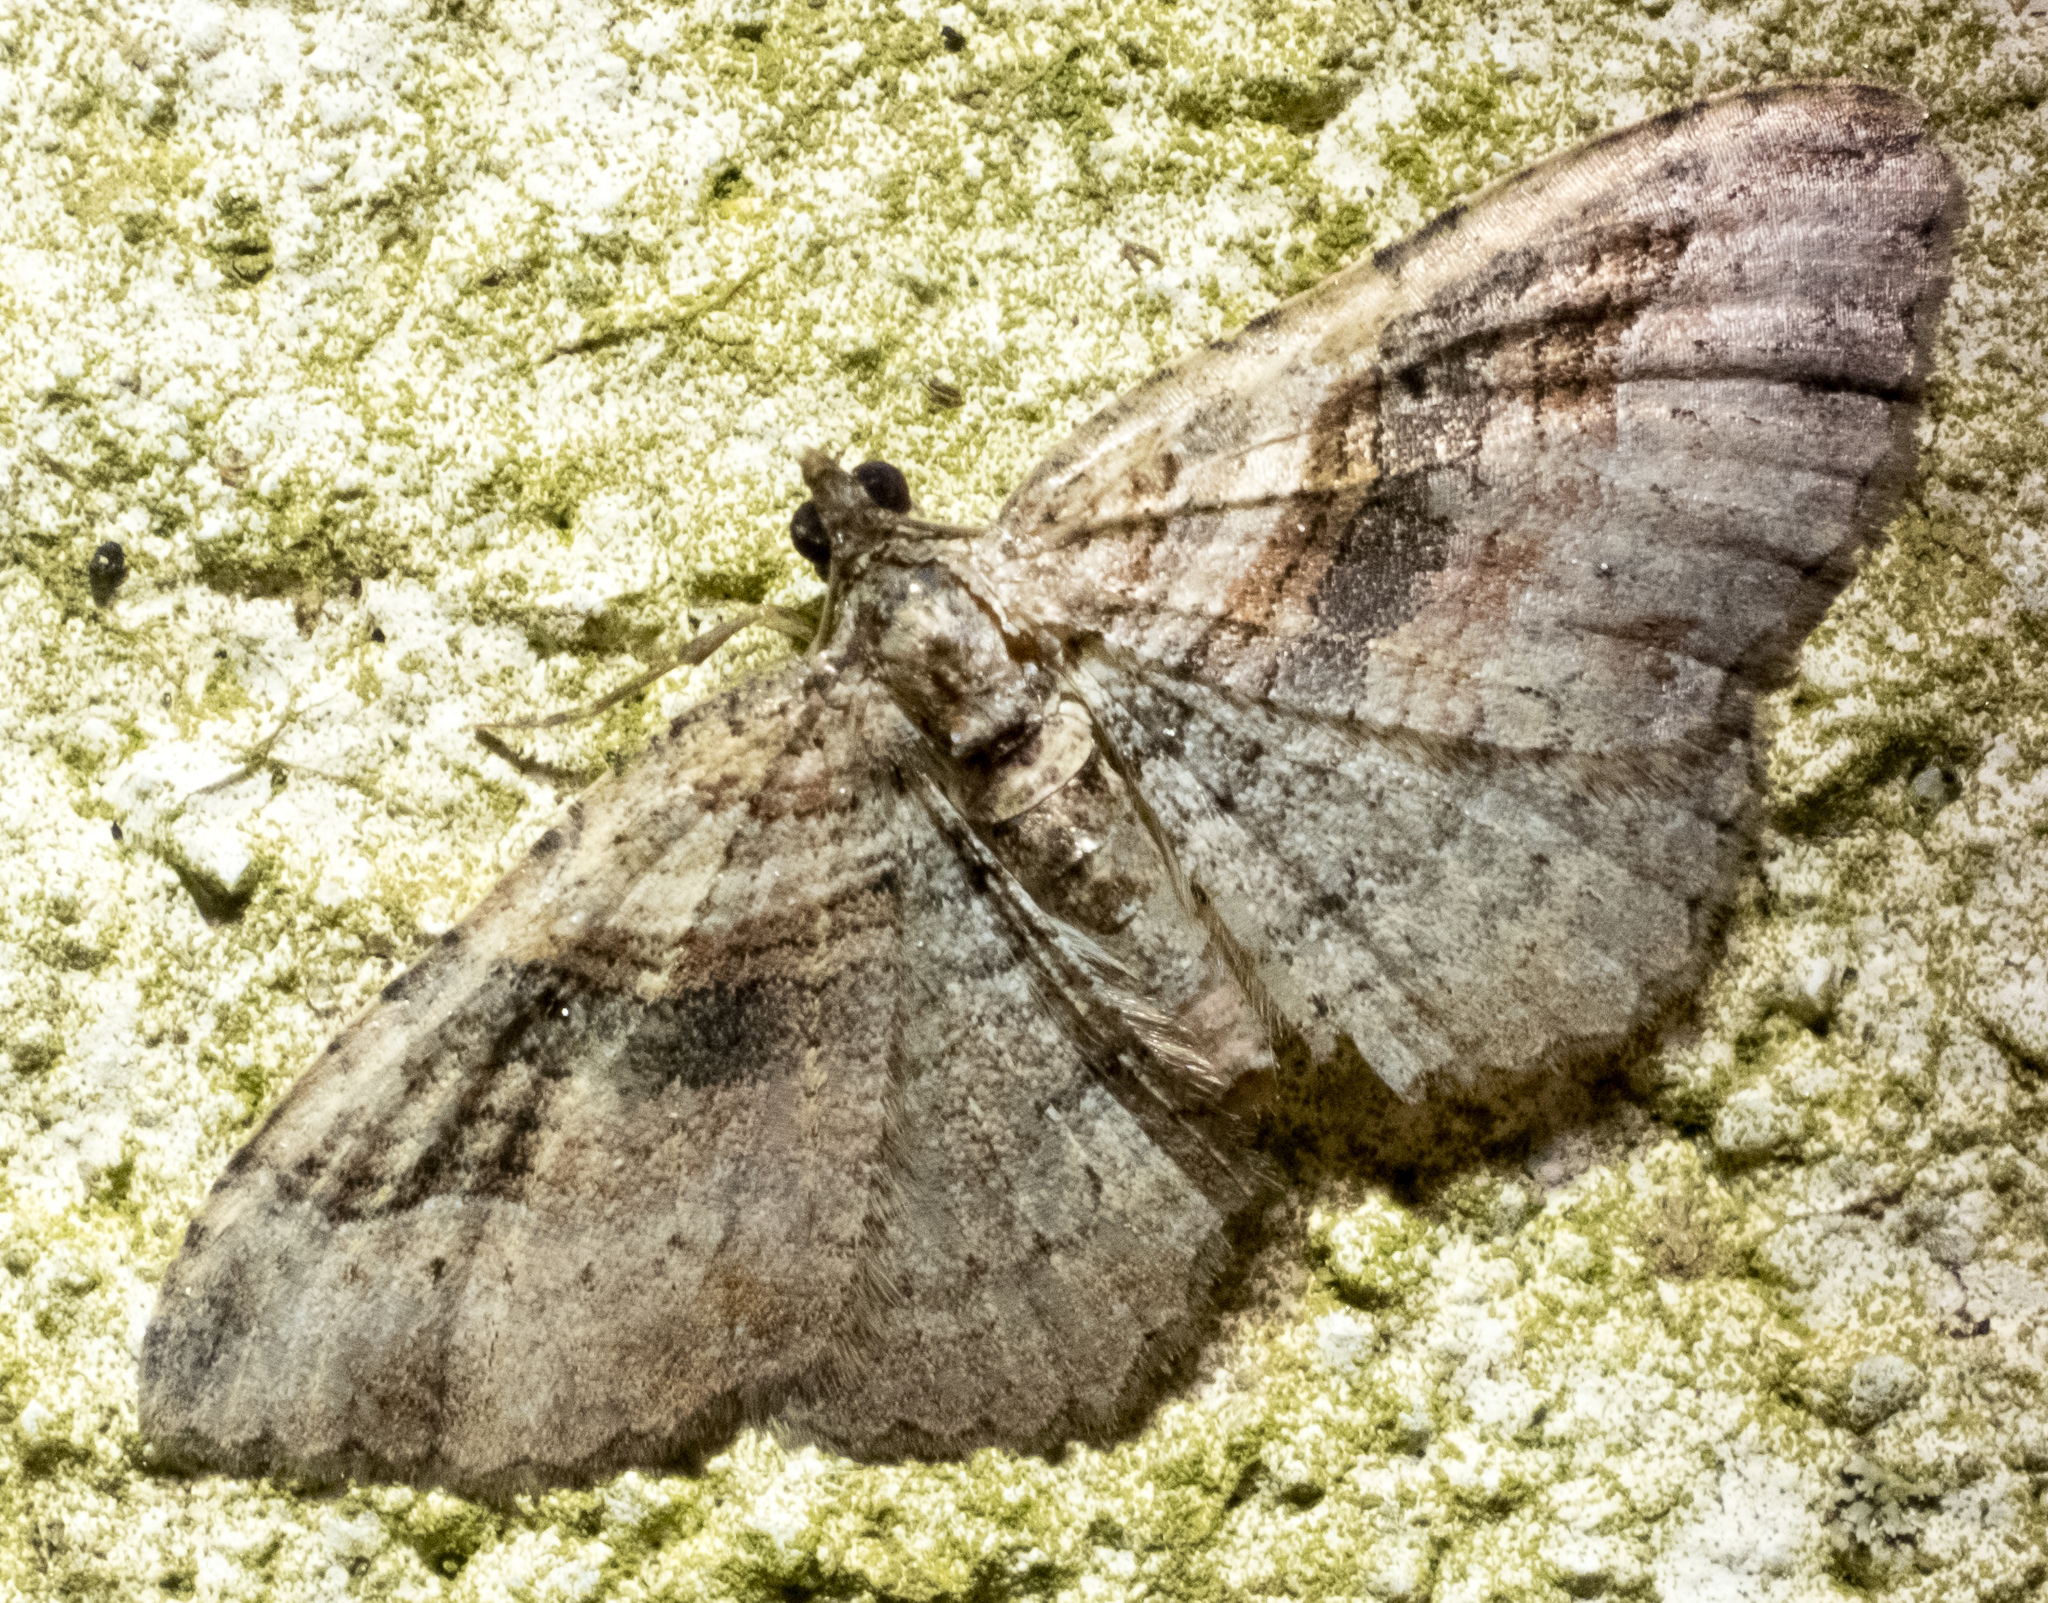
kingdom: Animalia
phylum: Arthropoda
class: Insecta
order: Lepidoptera
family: Geometridae
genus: Costaconvexa
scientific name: Costaconvexa centrostrigaria
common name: Bent-line carpet
